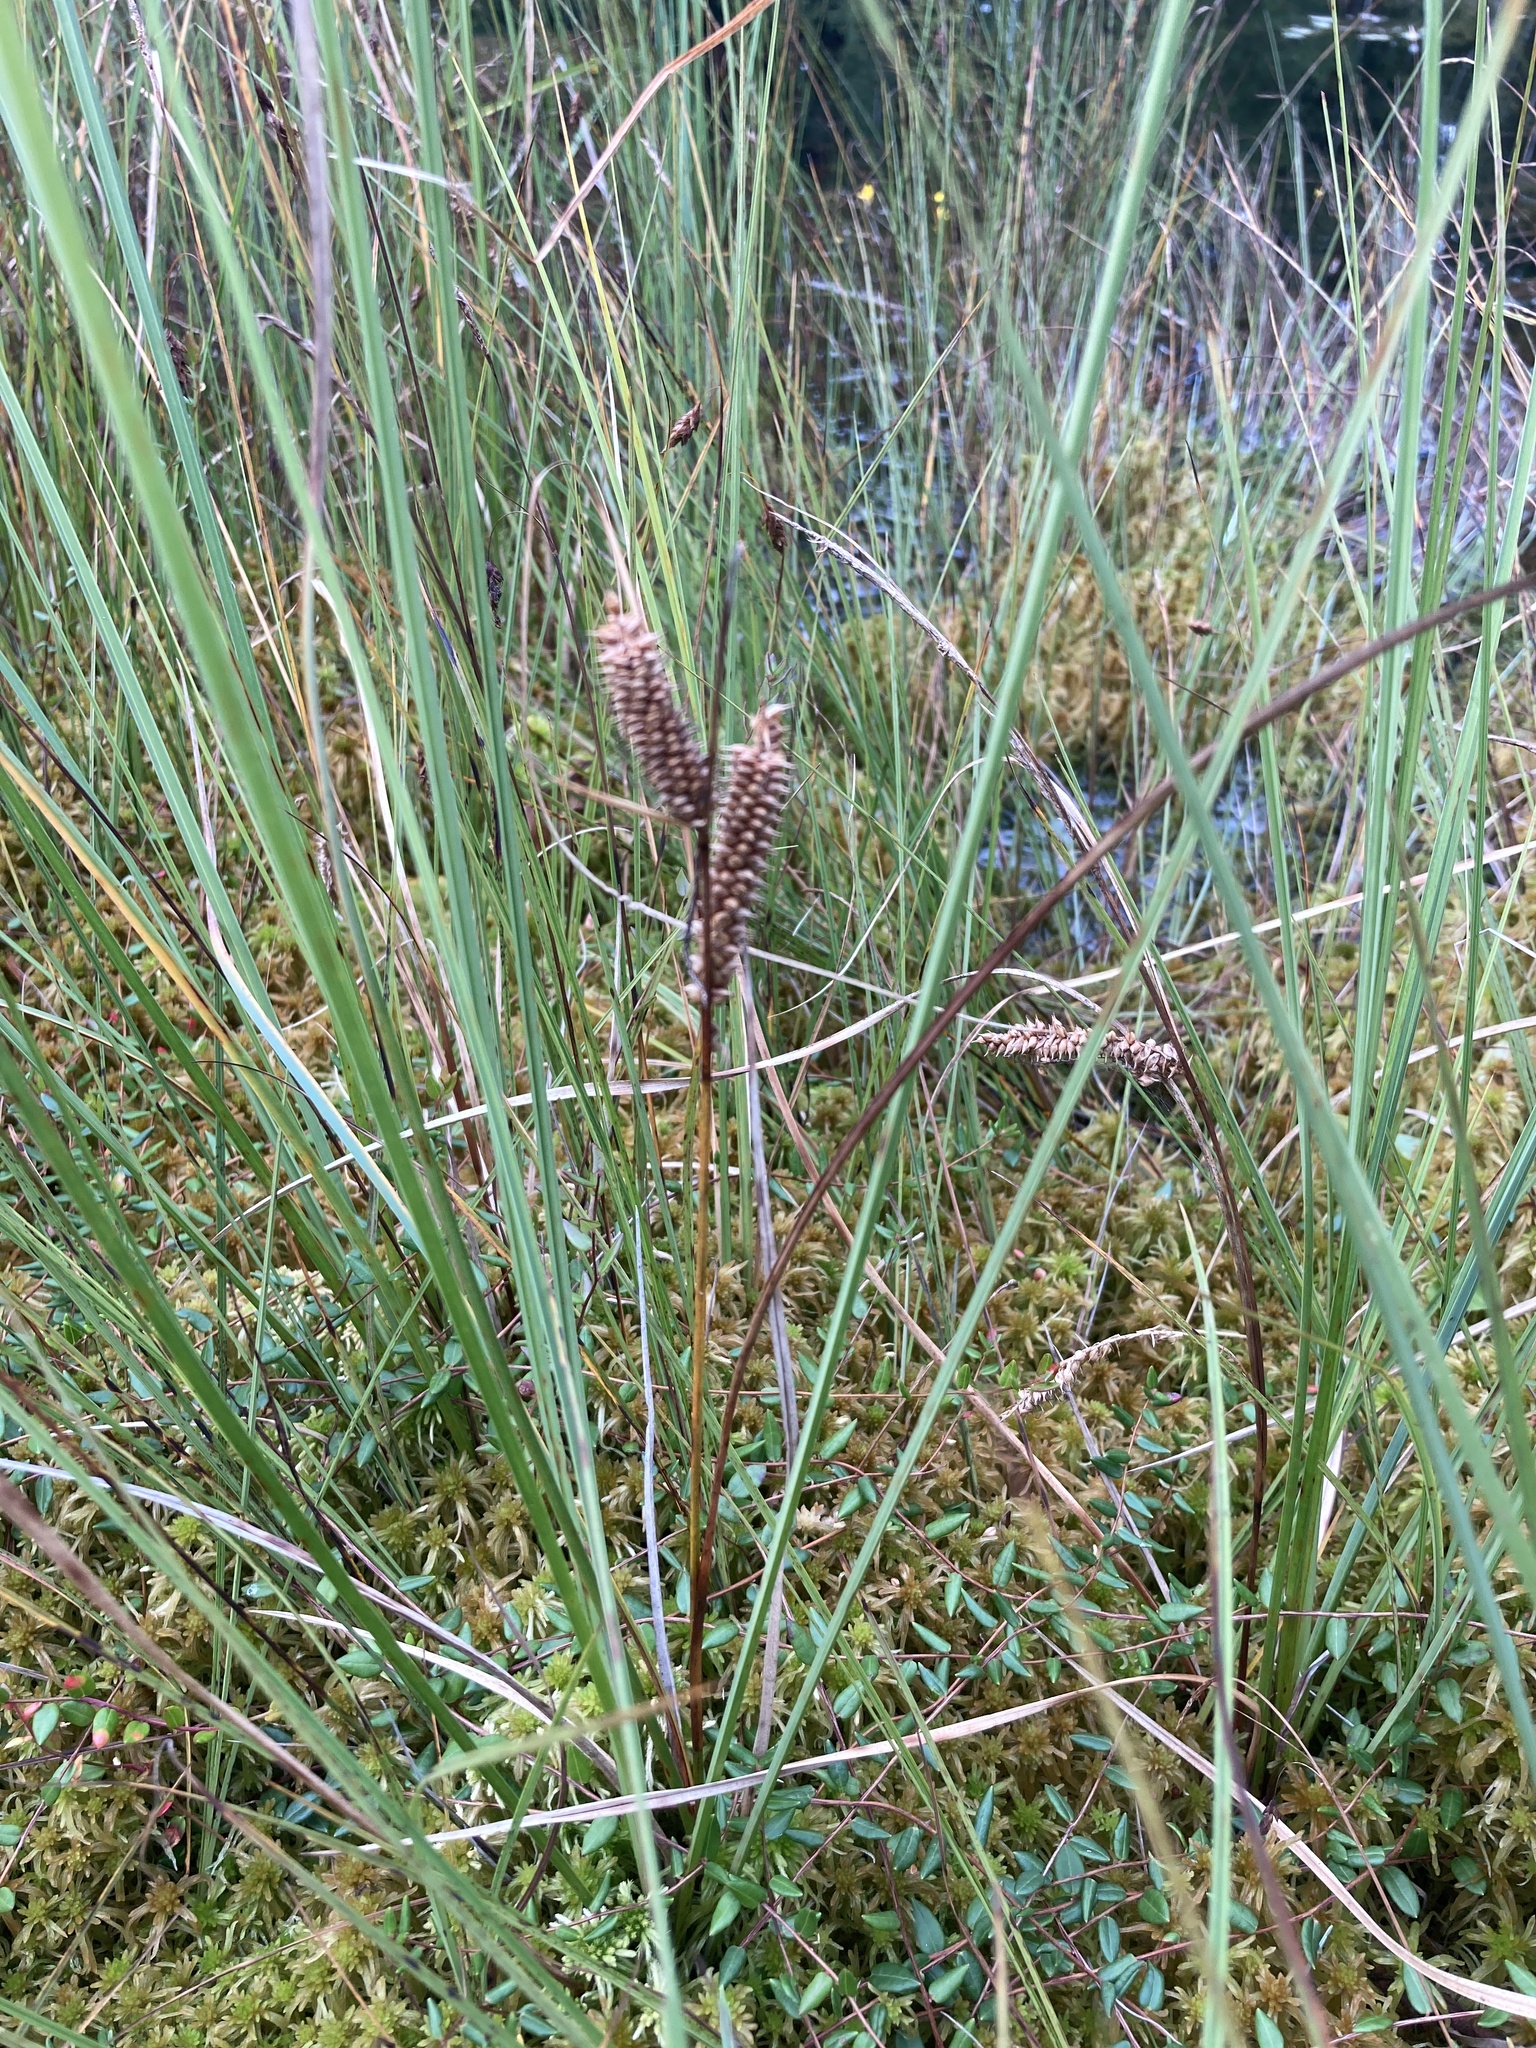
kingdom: Plantae
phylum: Tracheophyta
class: Liliopsida
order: Poales
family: Cyperaceae
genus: Carex
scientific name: Carex rostrata
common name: Bottle sedge
